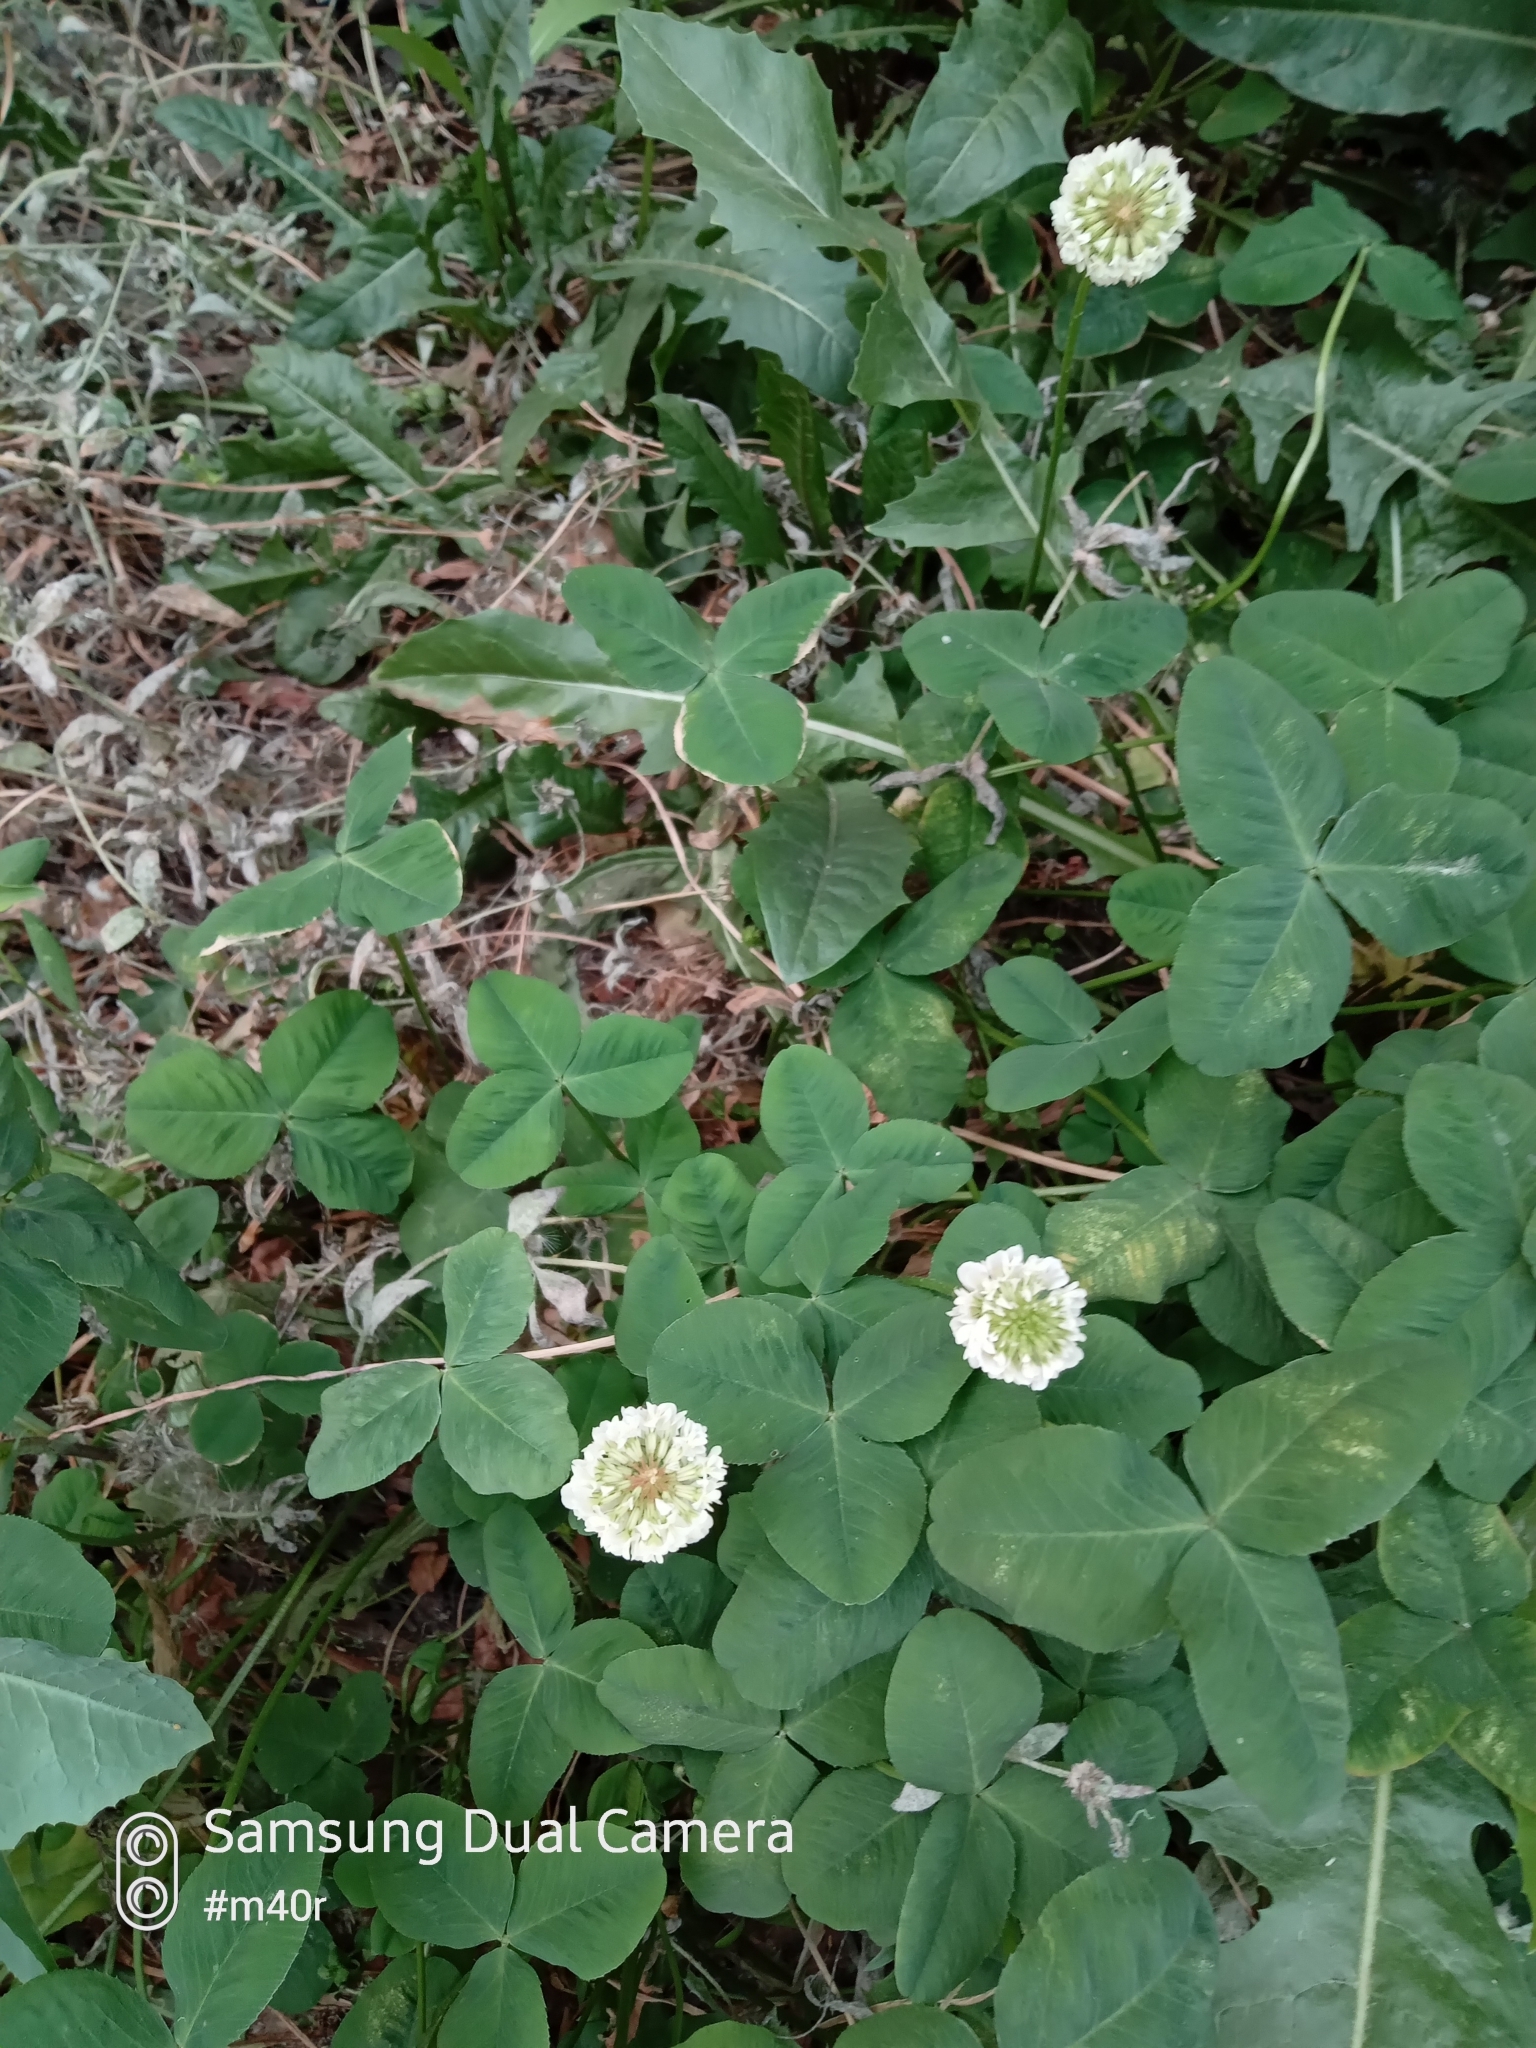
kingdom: Plantae
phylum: Tracheophyta
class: Magnoliopsida
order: Fabales
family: Fabaceae
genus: Trifolium
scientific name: Trifolium repens
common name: White clover
